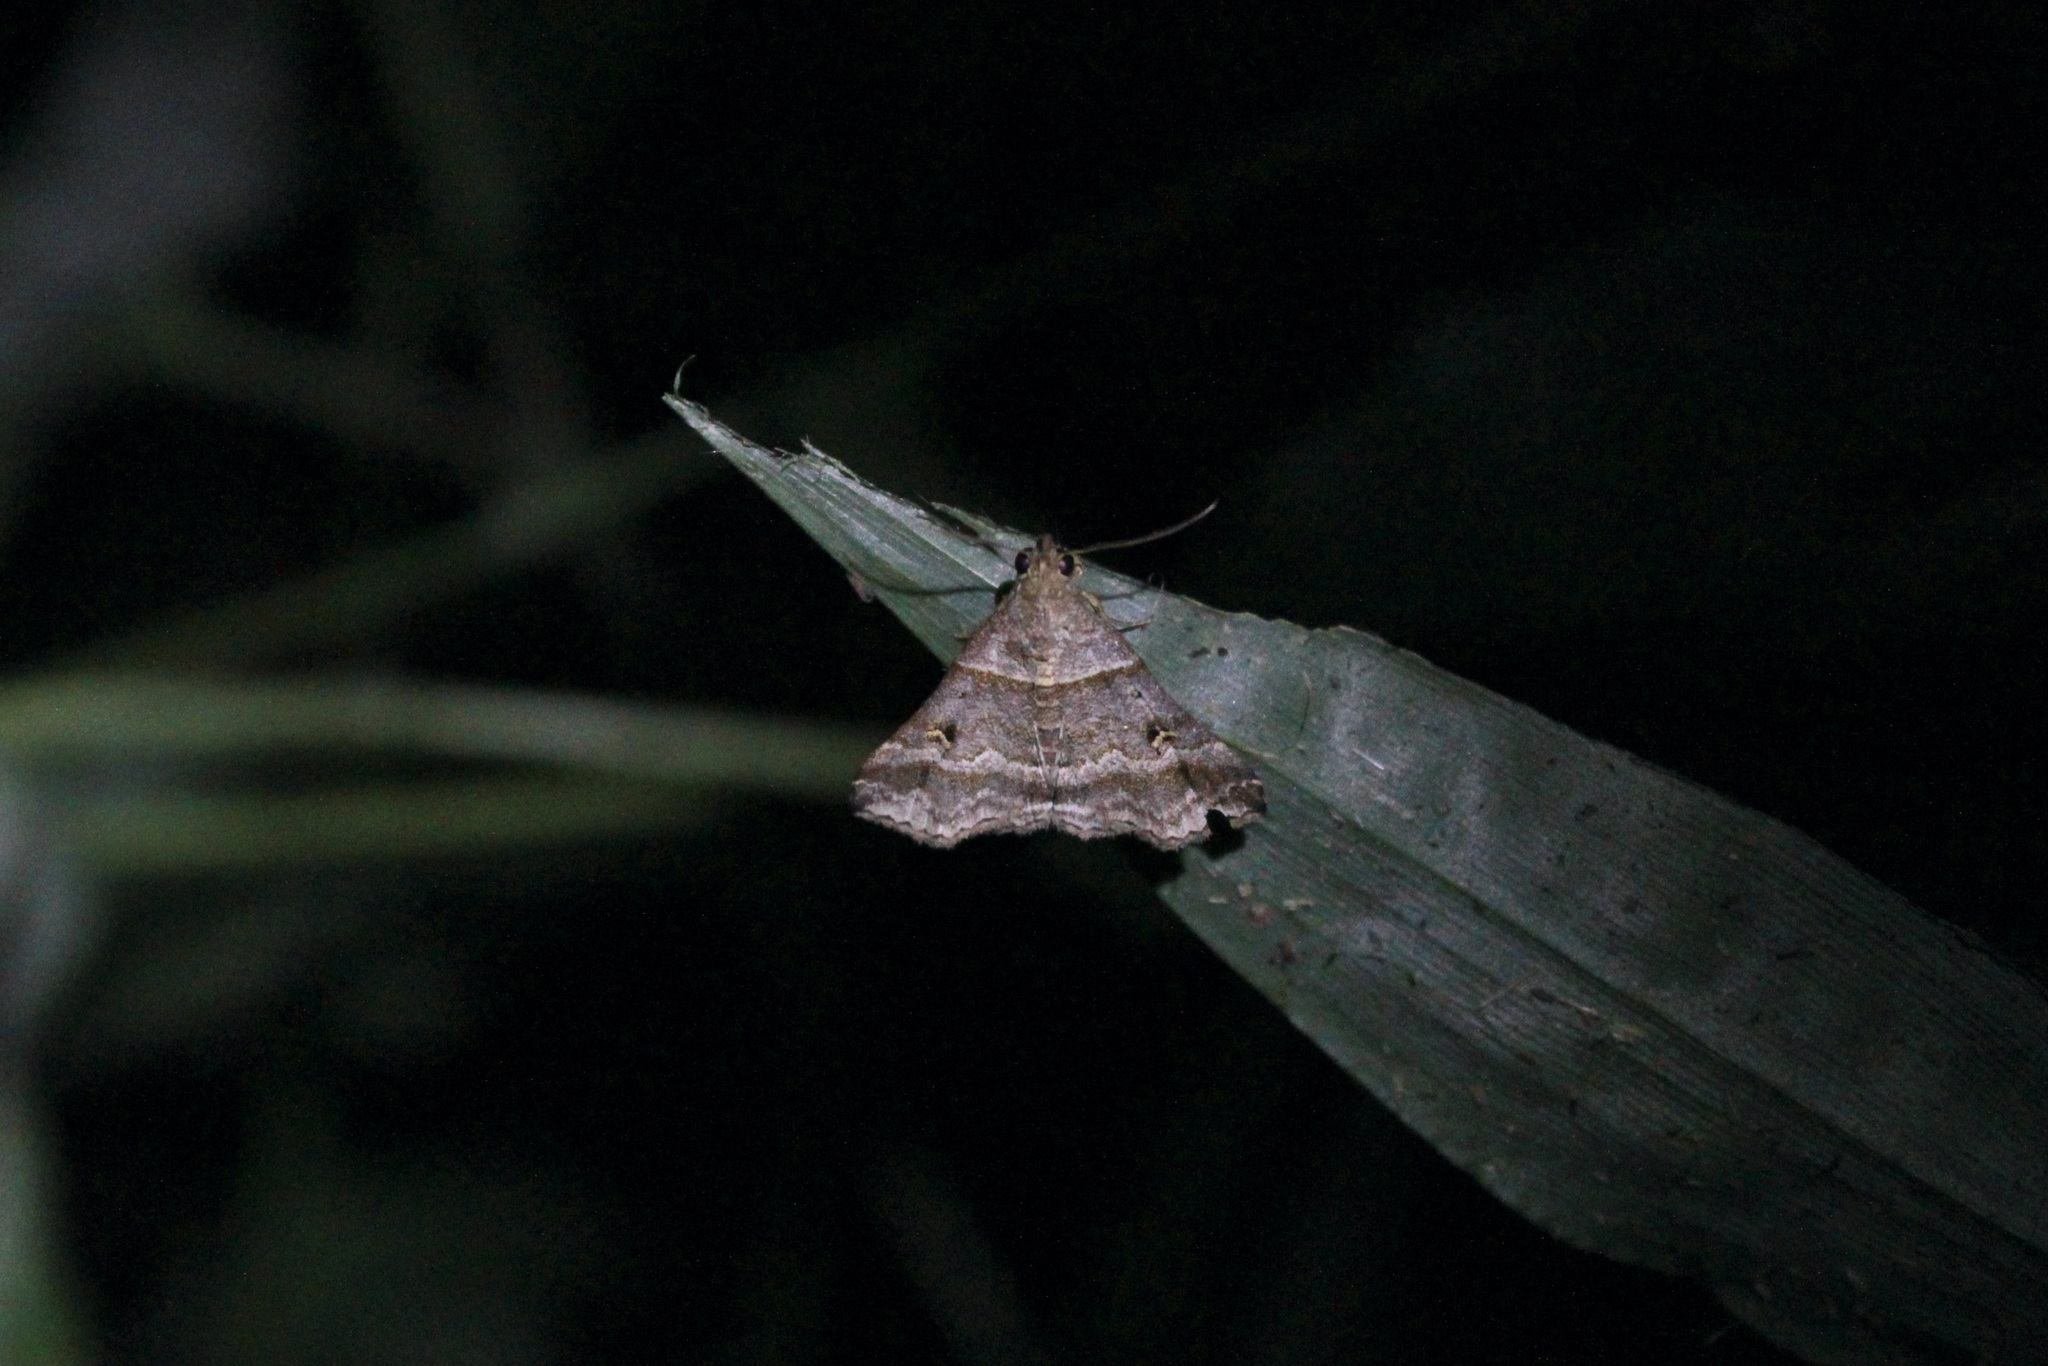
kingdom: Animalia
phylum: Arthropoda
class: Insecta
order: Lepidoptera
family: Erebidae
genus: Heterogramma
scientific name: Heterogramma circumflexalis
